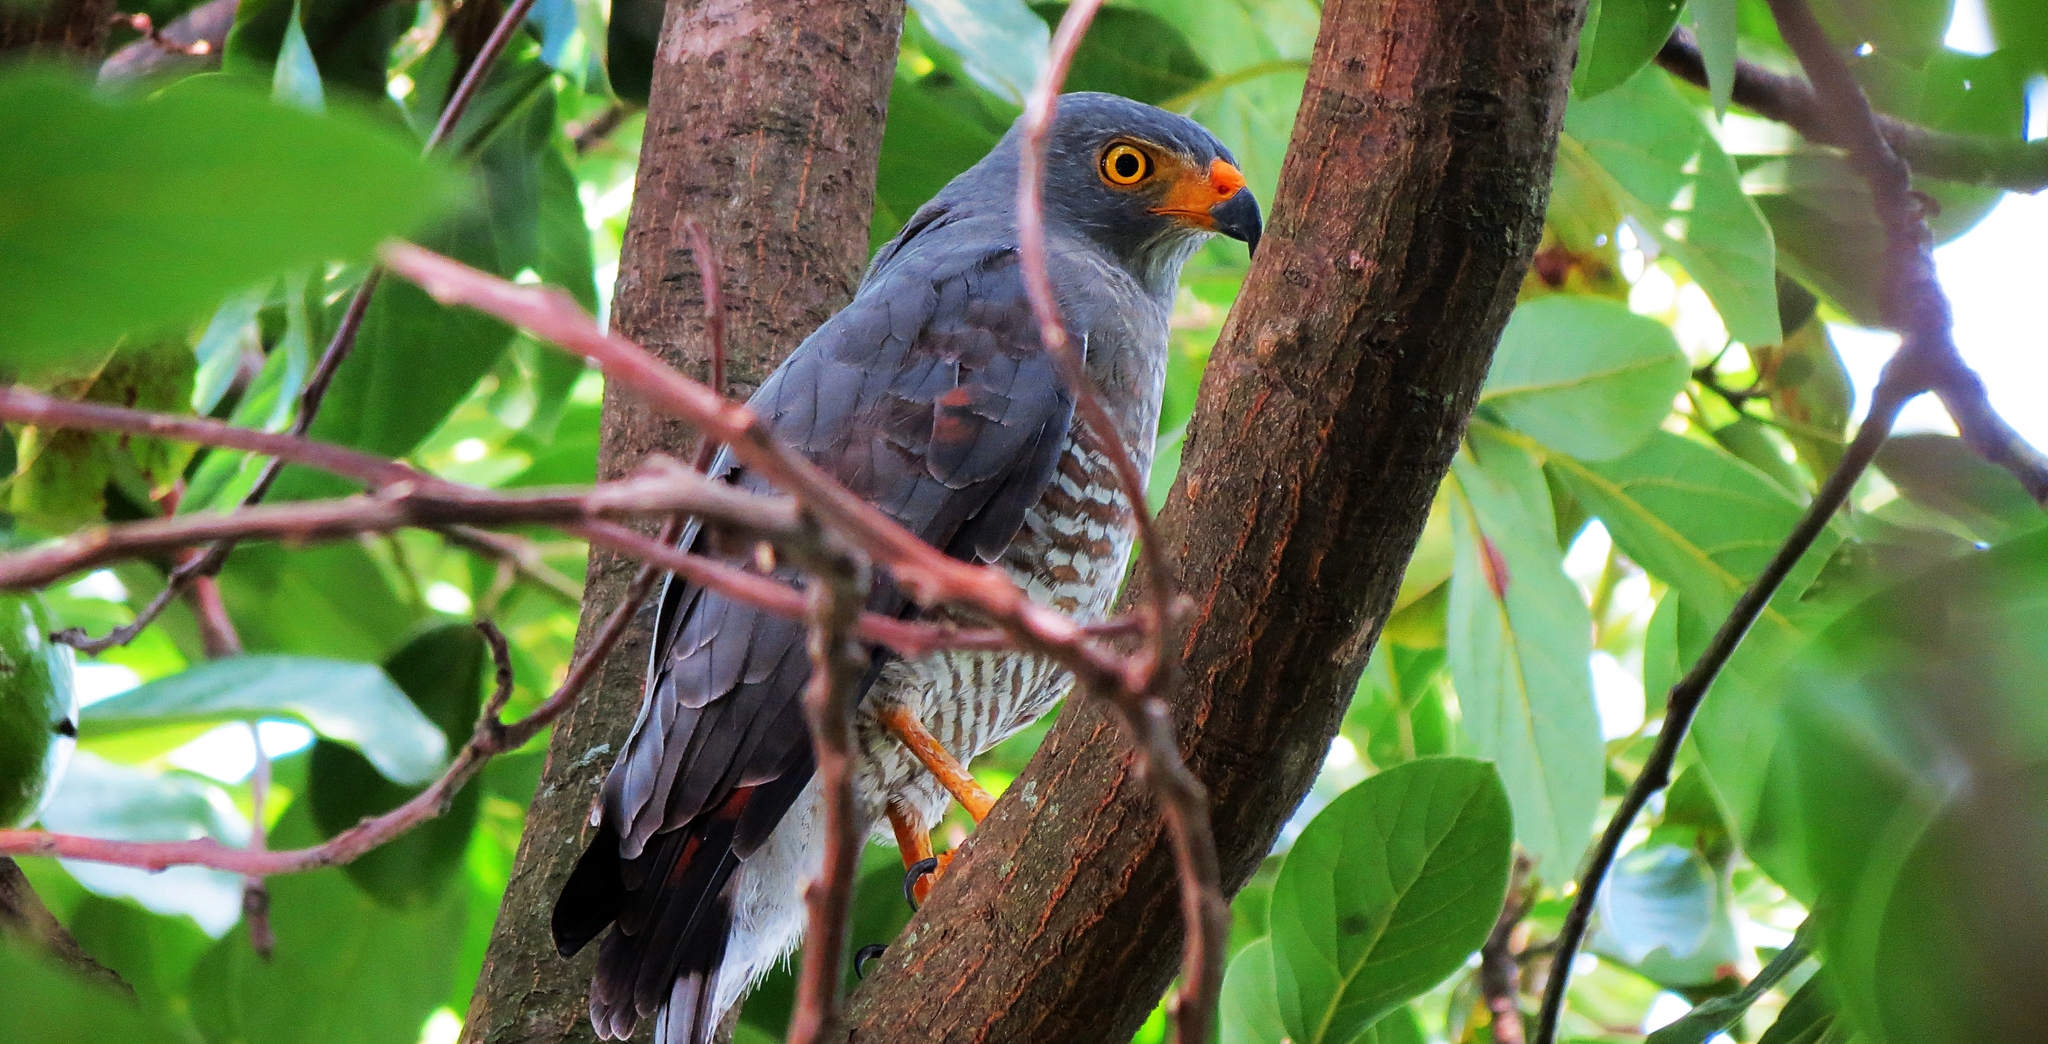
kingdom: Animalia
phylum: Chordata
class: Aves
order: Accipitriformes
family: Accipitridae
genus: Rupornis
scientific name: Rupornis magnirostris
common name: Roadside hawk
